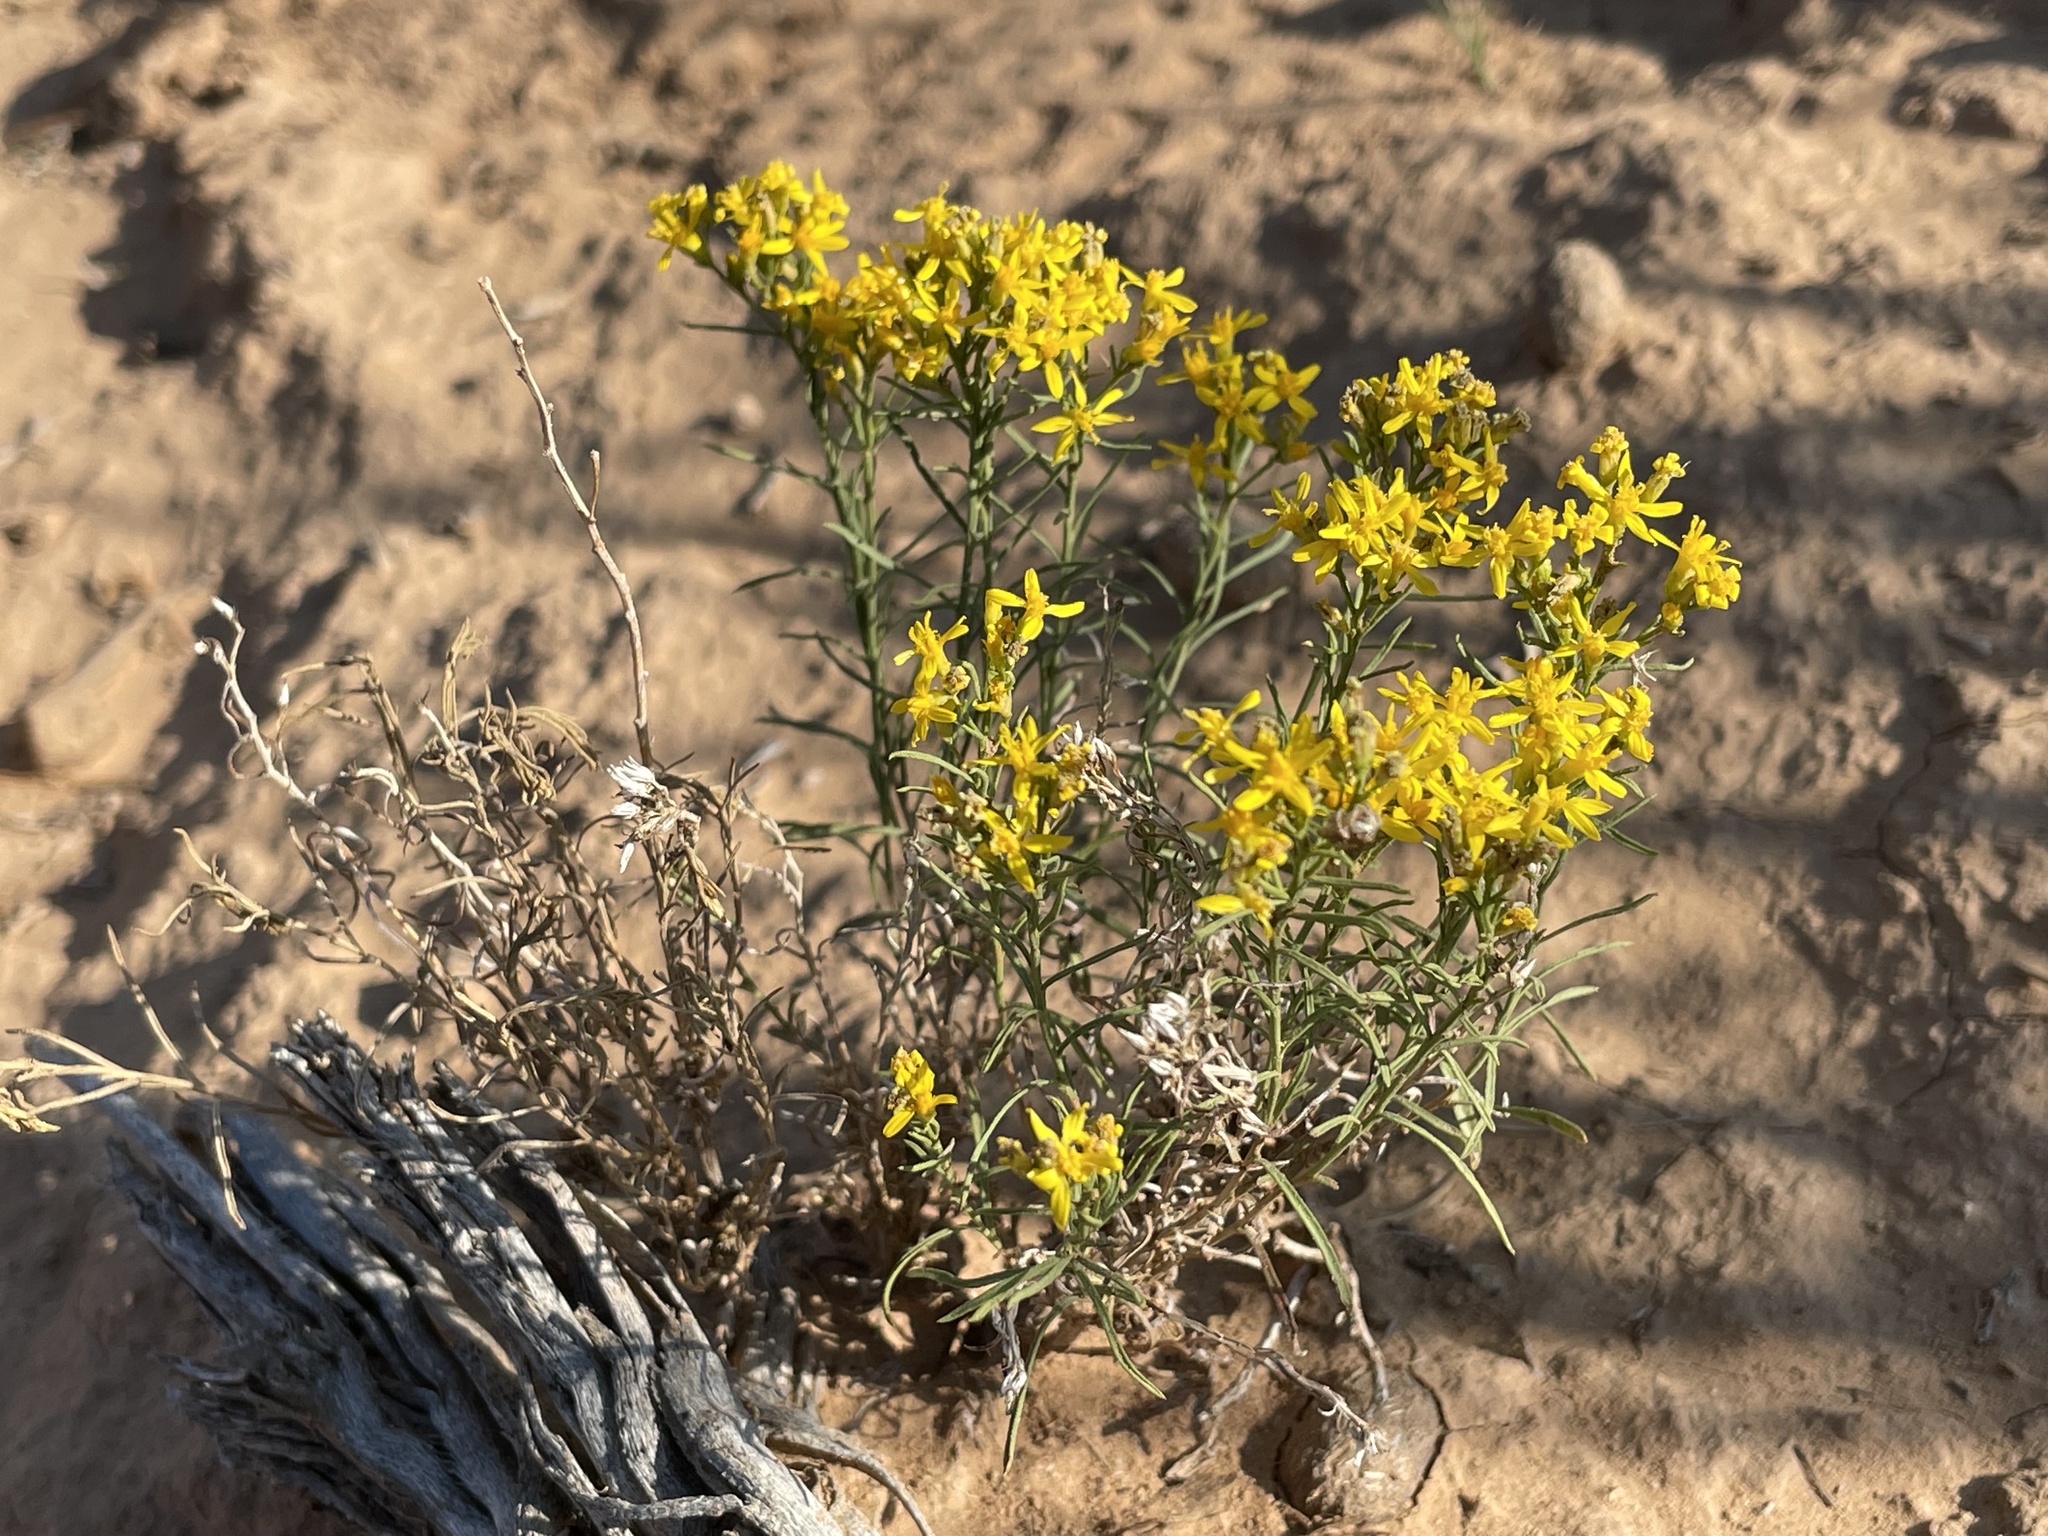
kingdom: Plantae
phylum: Tracheophyta
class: Magnoliopsida
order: Asterales
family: Asteraceae
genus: Gutierrezia
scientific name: Gutierrezia sarothrae
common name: Broom snakeweed
